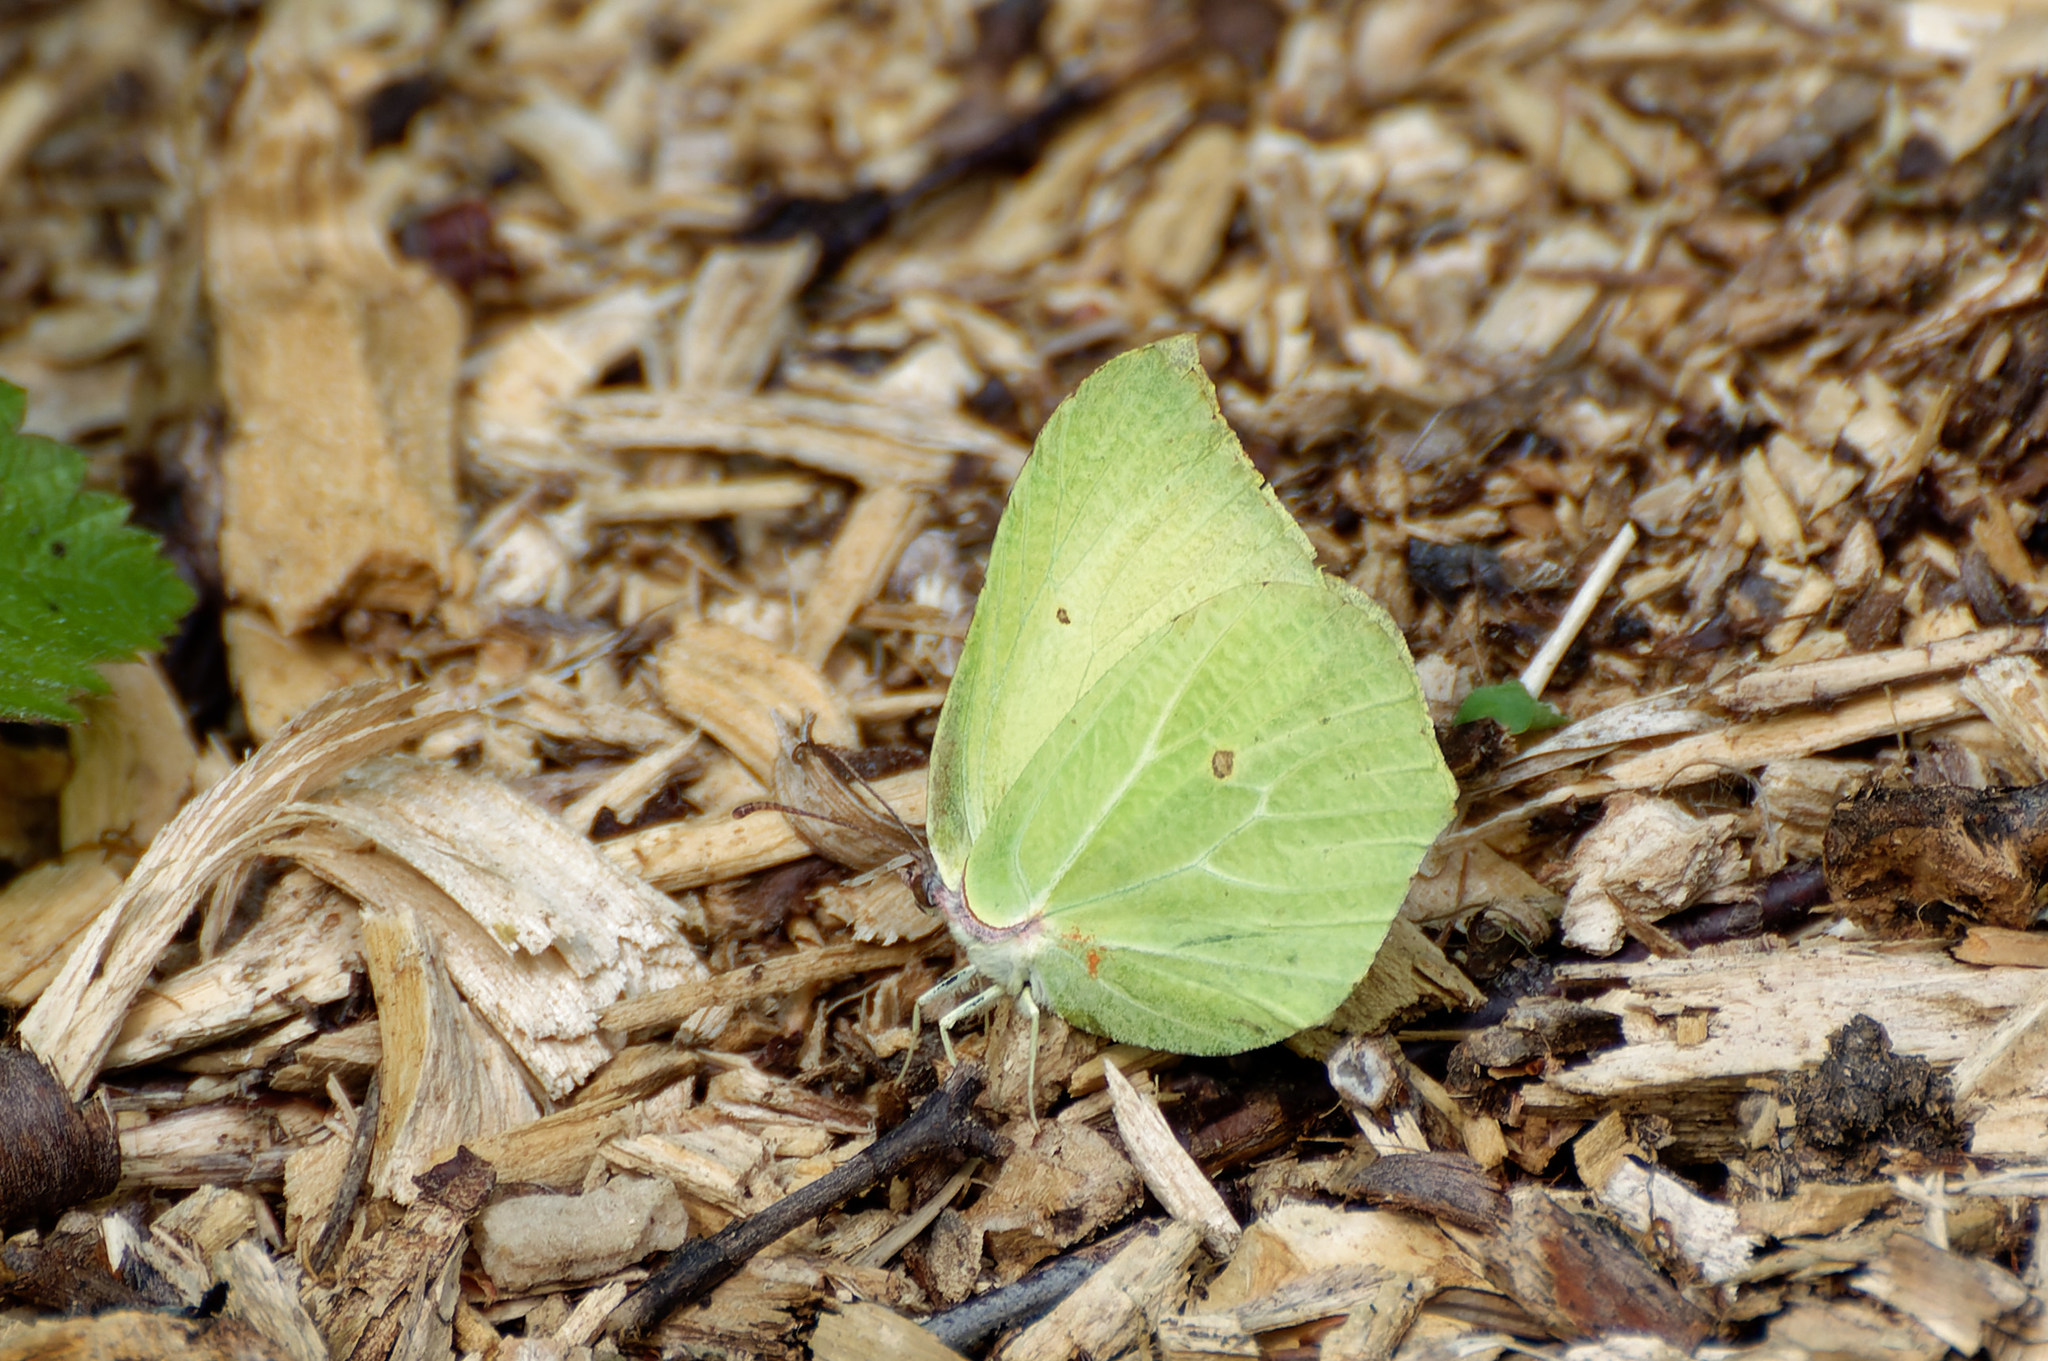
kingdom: Animalia
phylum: Arthropoda
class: Insecta
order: Lepidoptera
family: Pieridae
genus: Gonepteryx
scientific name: Gonepteryx rhamni
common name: Brimstone
